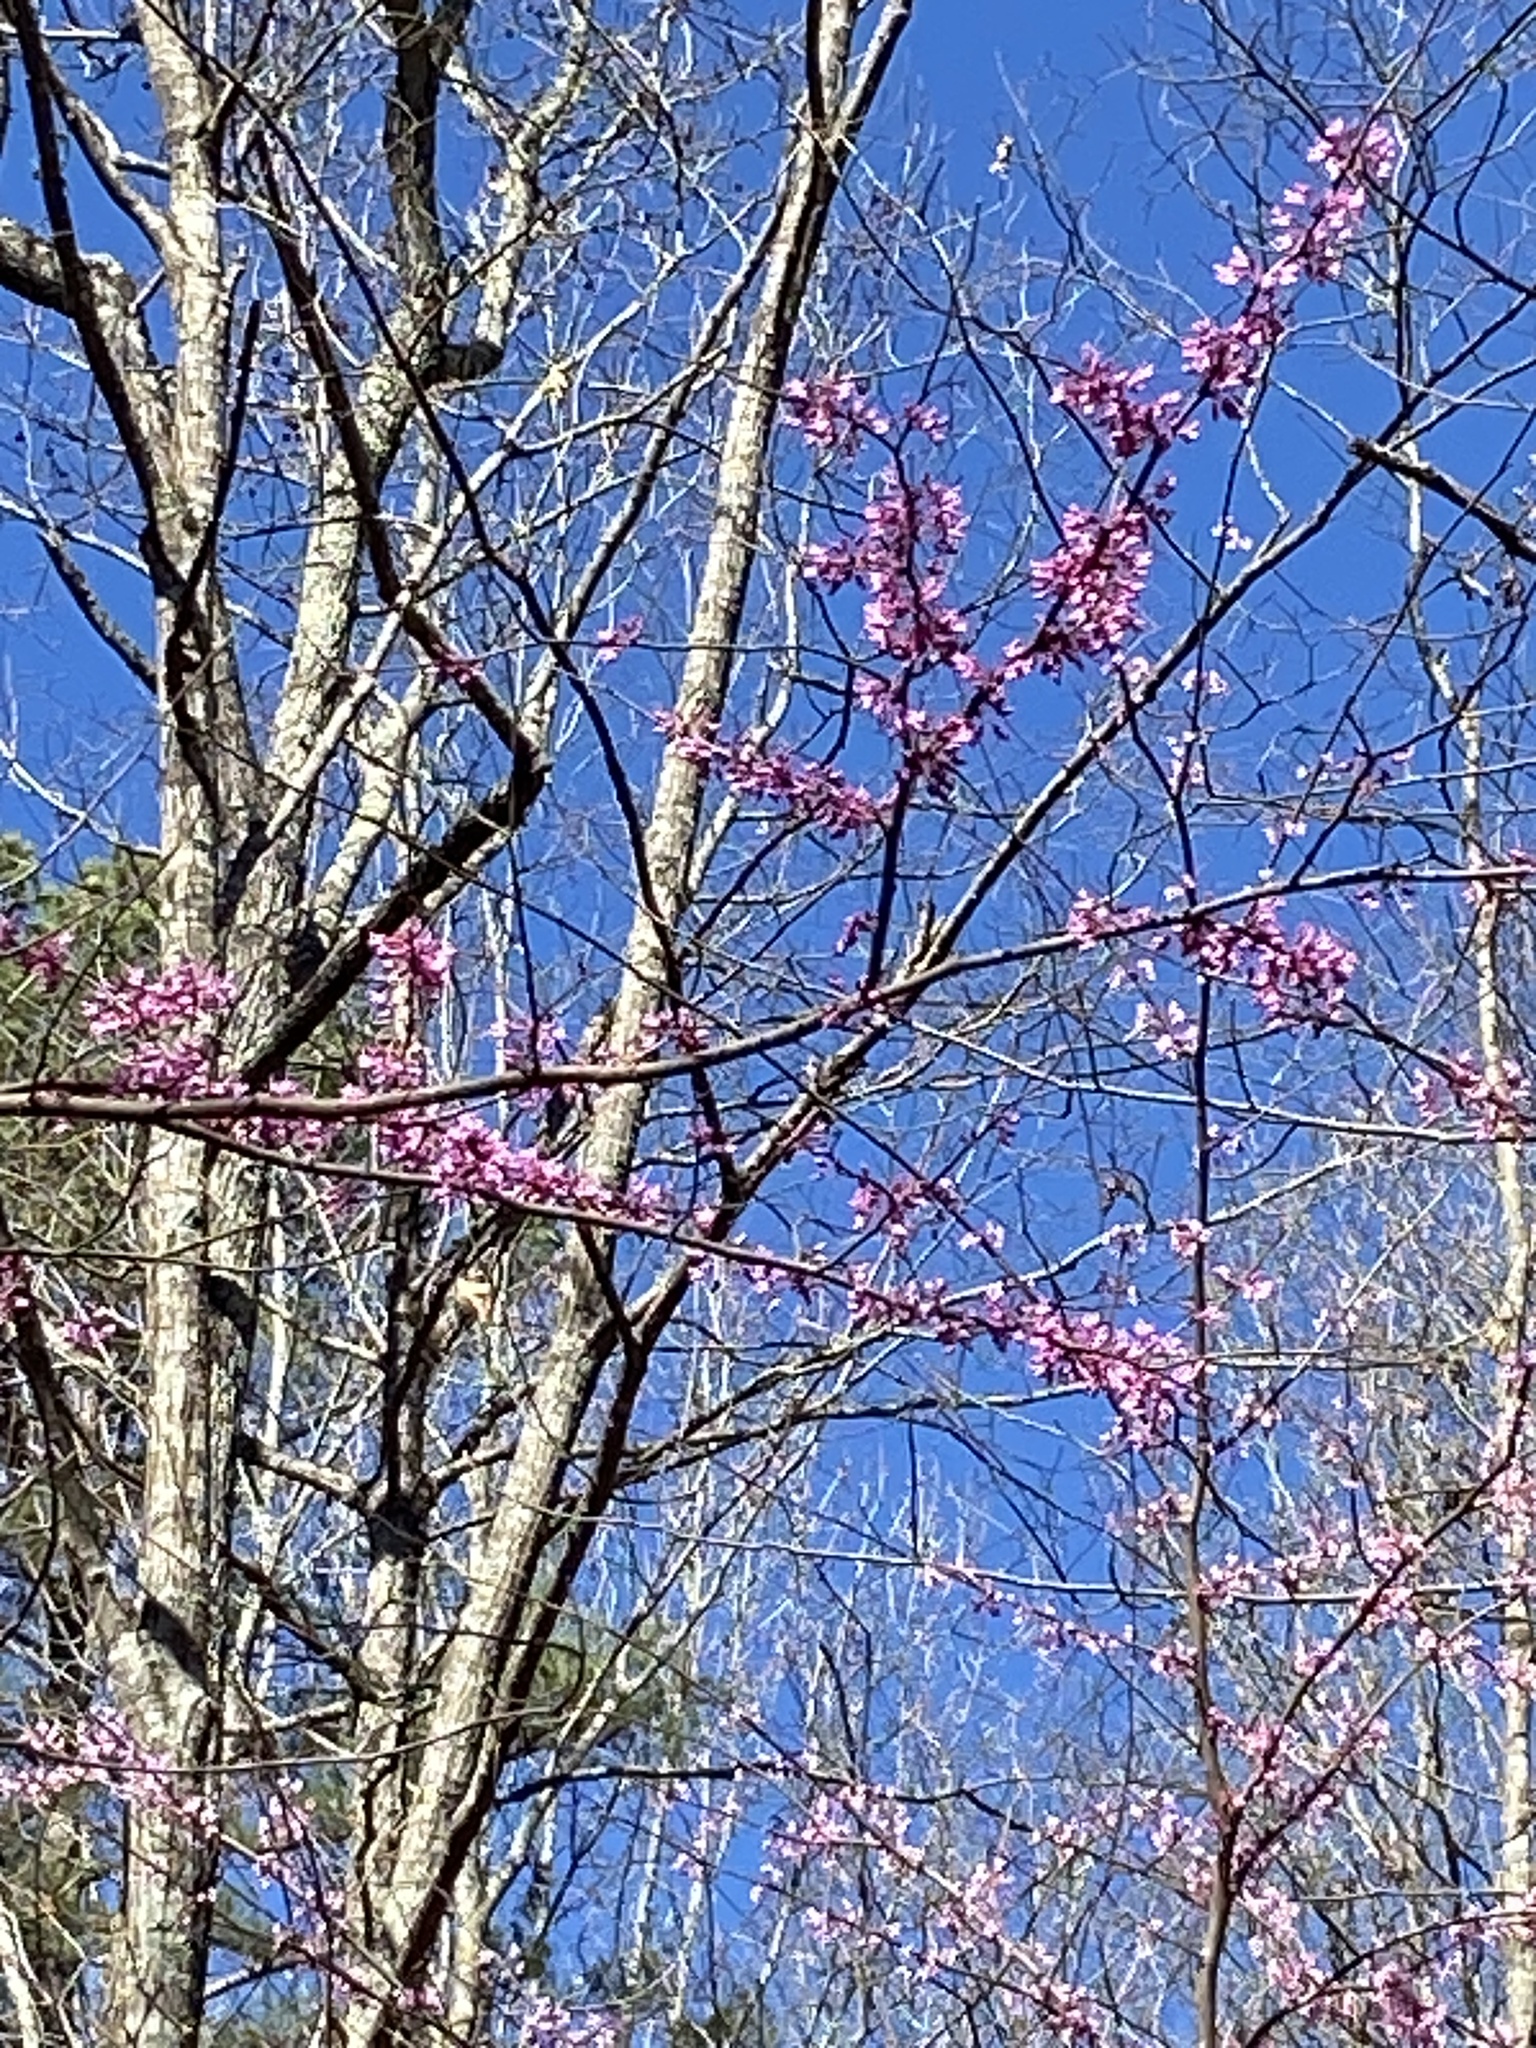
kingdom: Plantae
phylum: Tracheophyta
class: Magnoliopsida
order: Fabales
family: Fabaceae
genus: Cercis
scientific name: Cercis canadensis
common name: Eastern redbud
